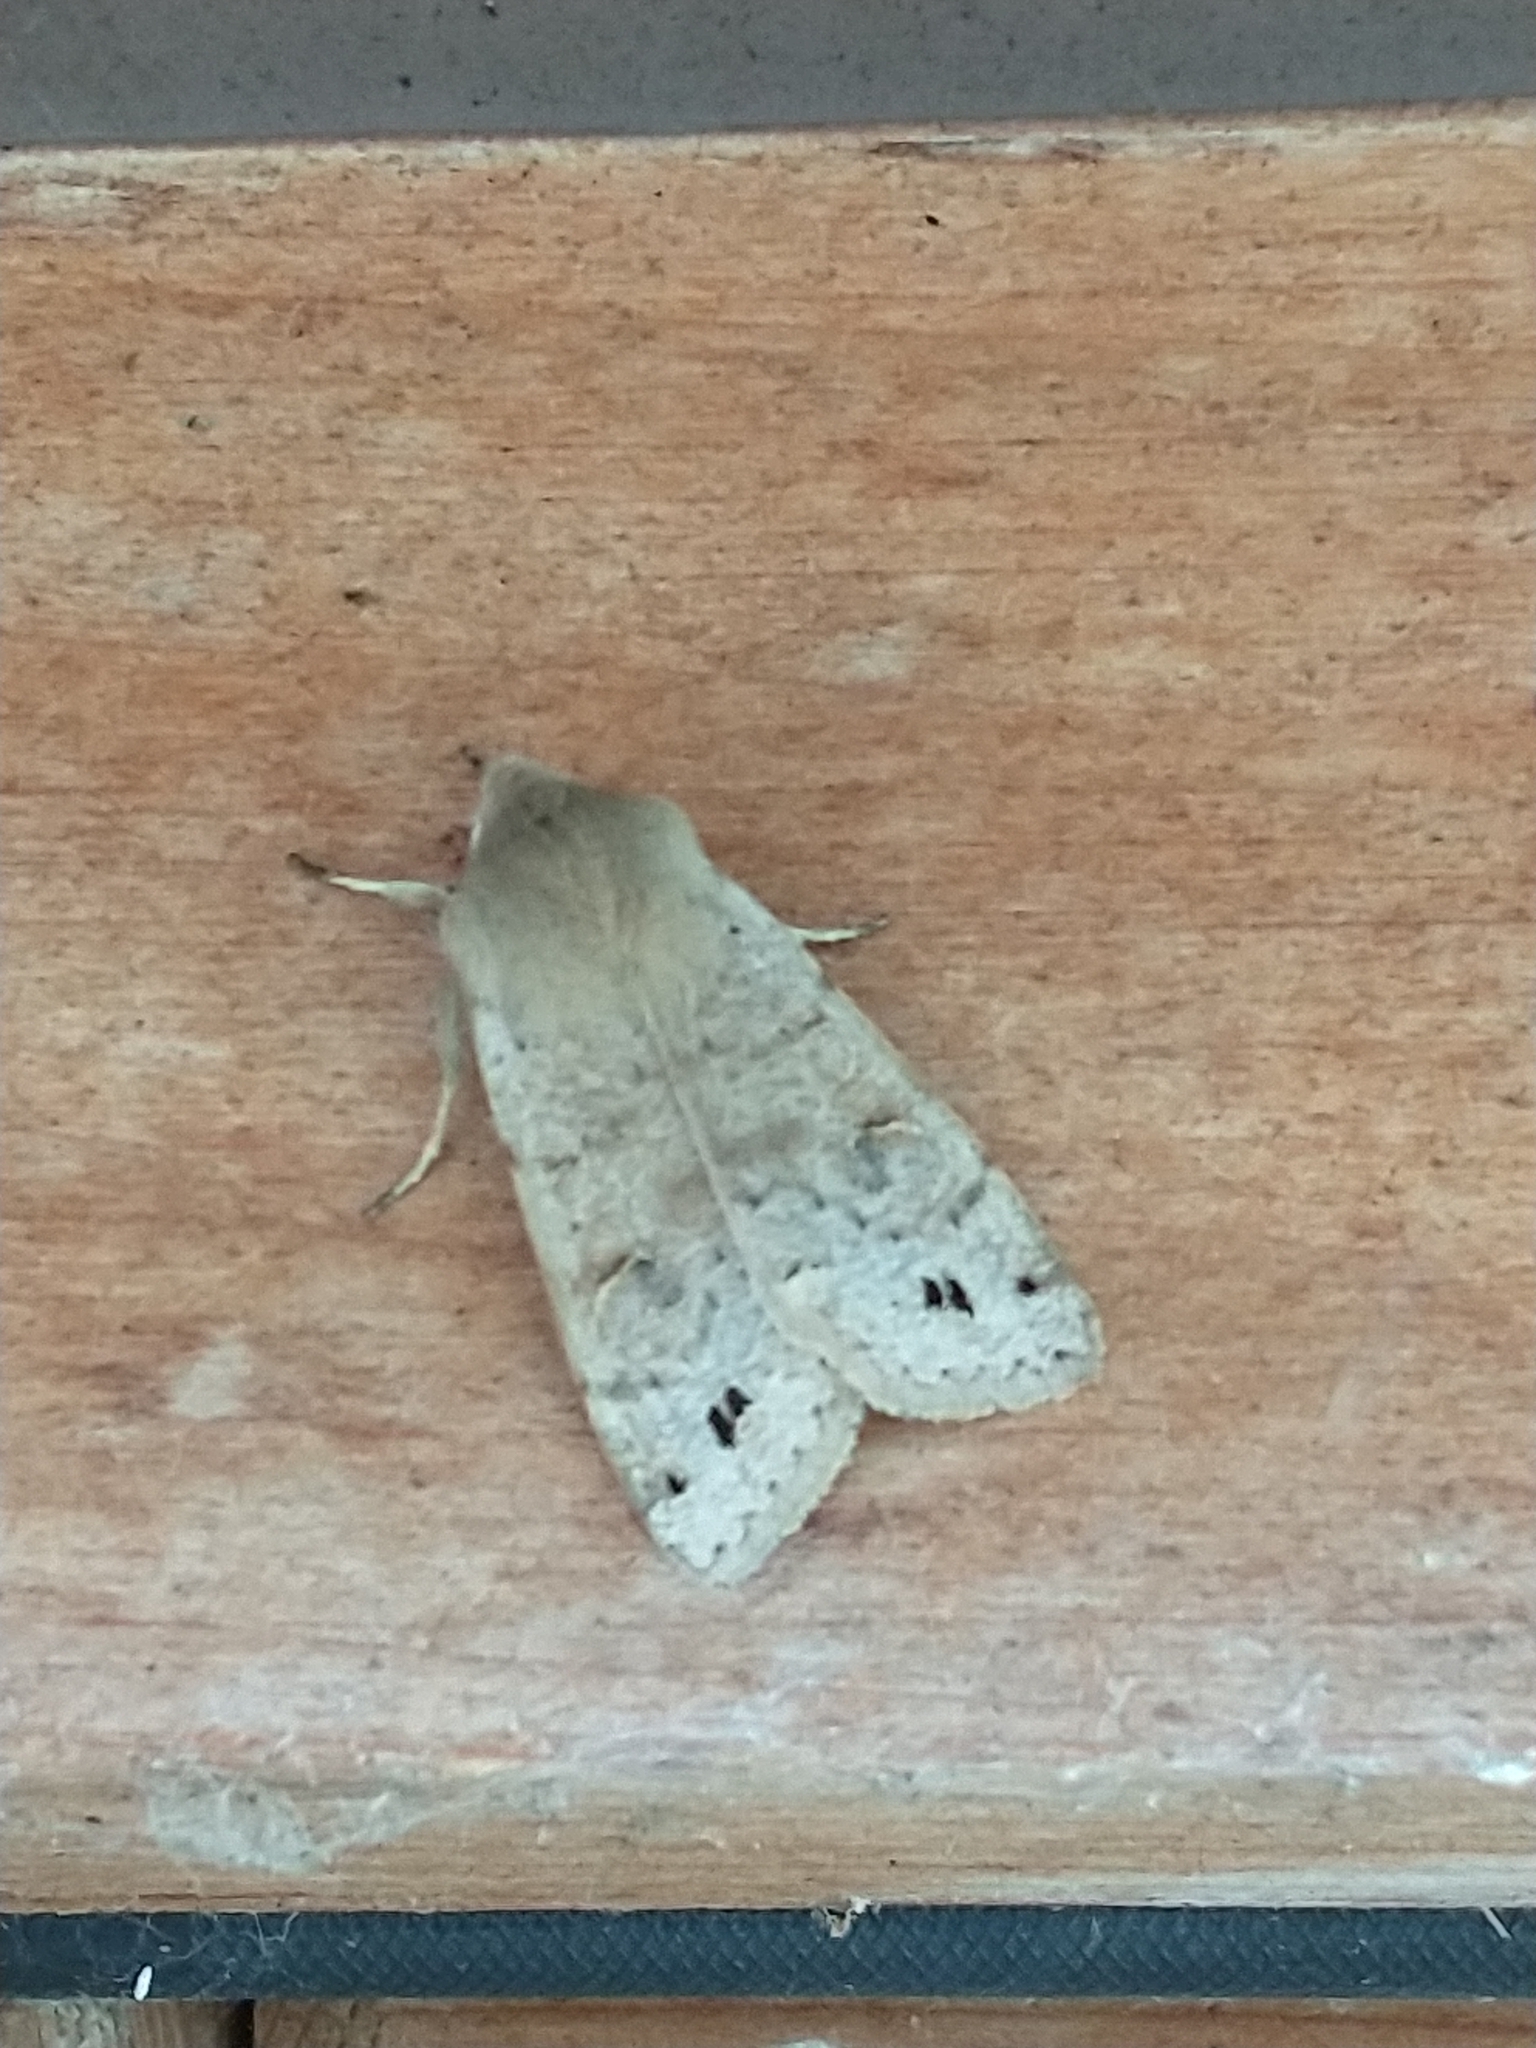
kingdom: Animalia
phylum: Arthropoda
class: Insecta
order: Lepidoptera
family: Noctuidae
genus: Anorthoa
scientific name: Anorthoa munda
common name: Twin-spotted quaker
